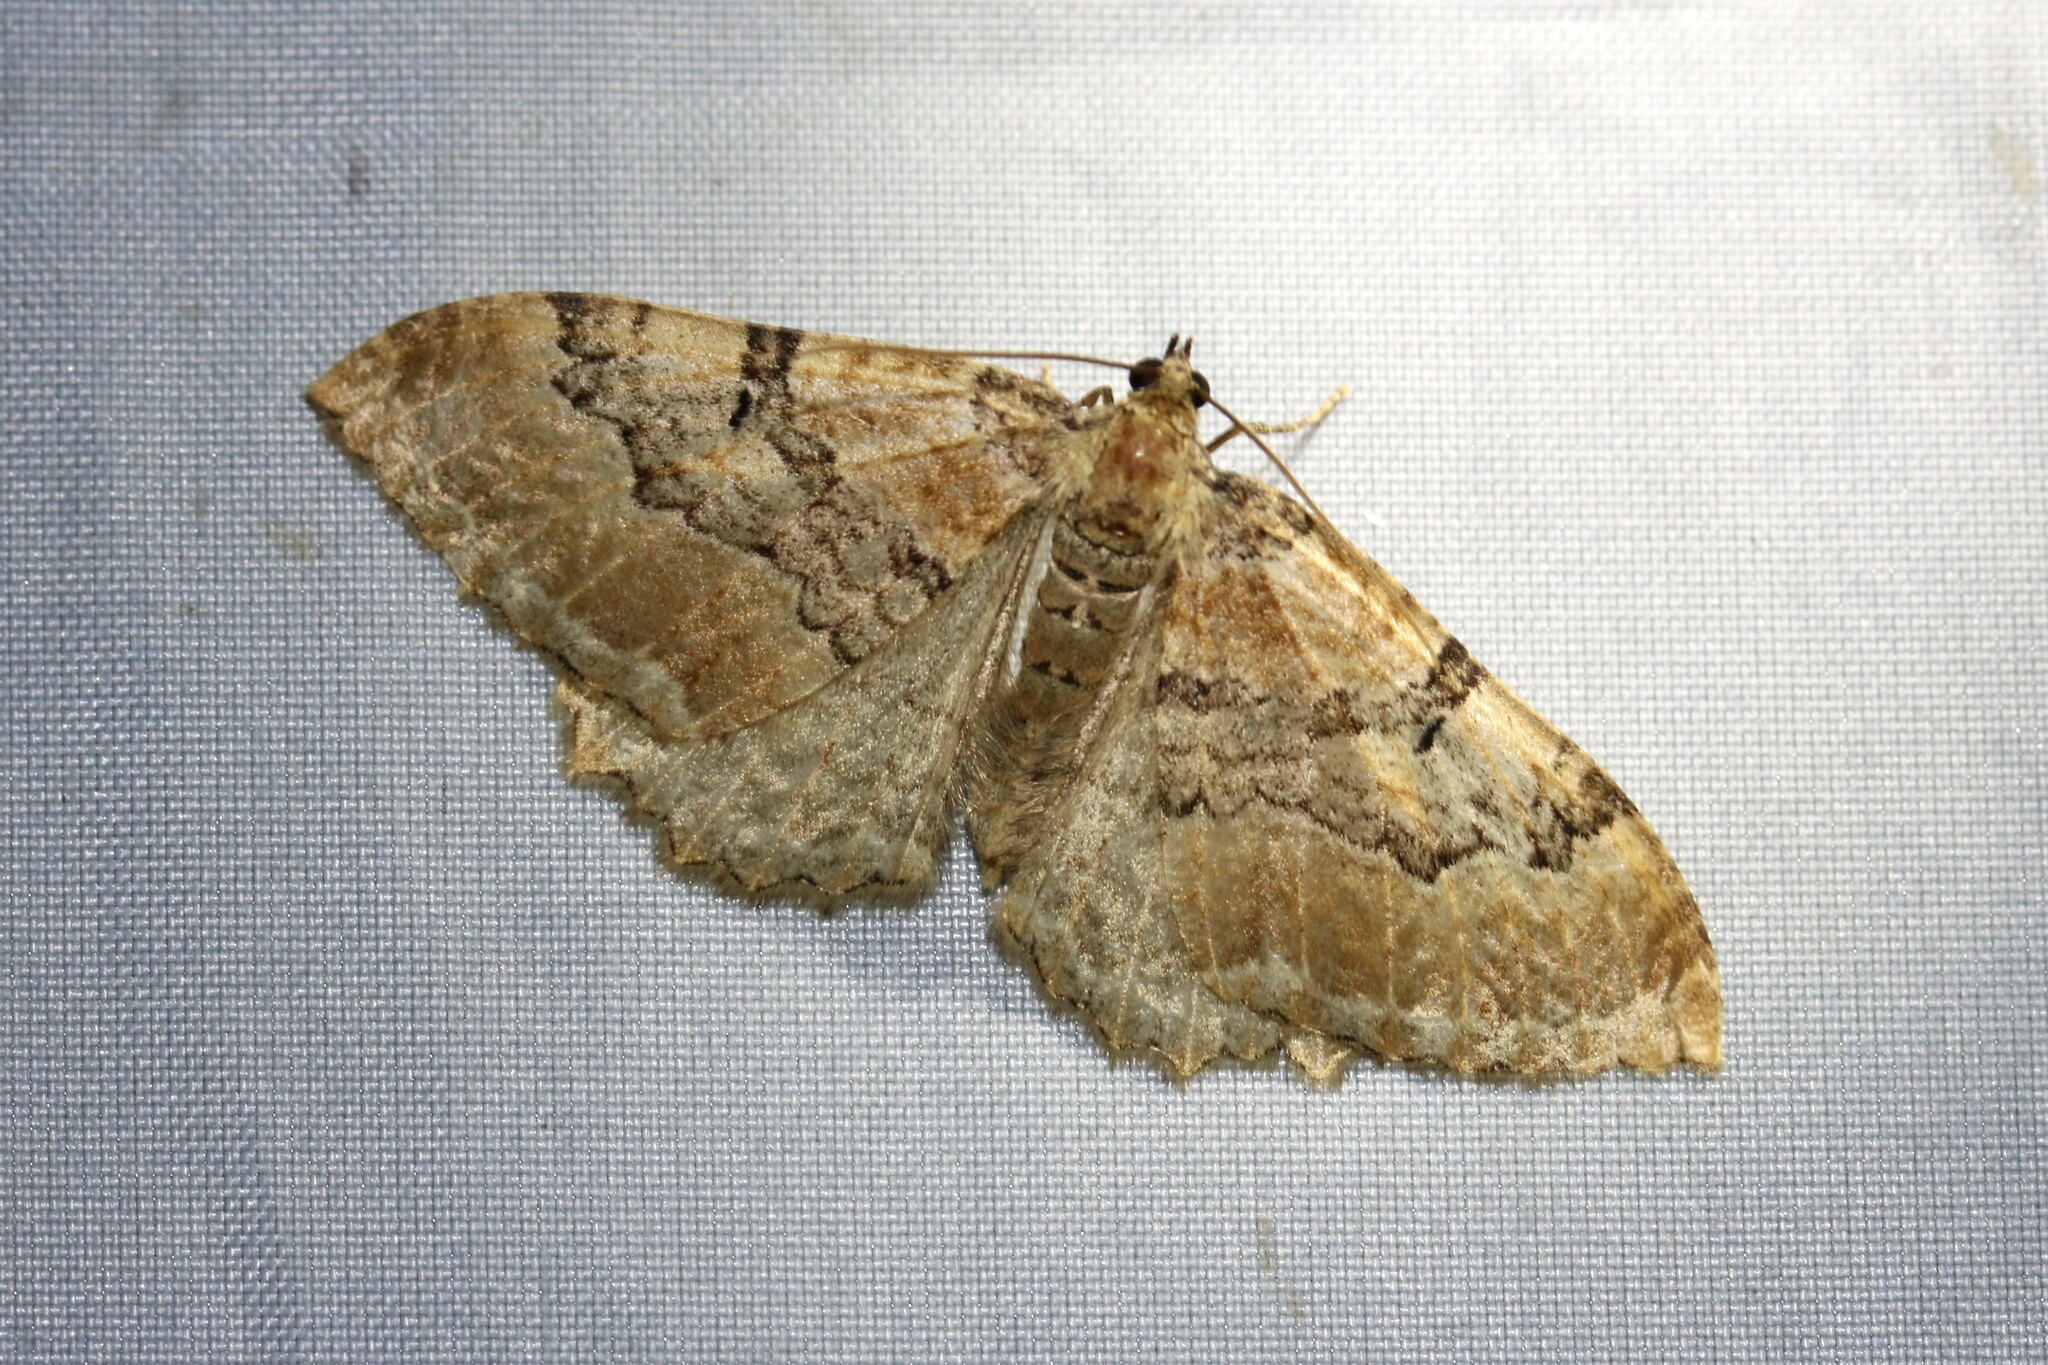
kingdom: Animalia
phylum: Arthropoda
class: Insecta
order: Lepidoptera
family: Geometridae
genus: Rheumaptera
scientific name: Rheumaptera Hydria cervinalis
